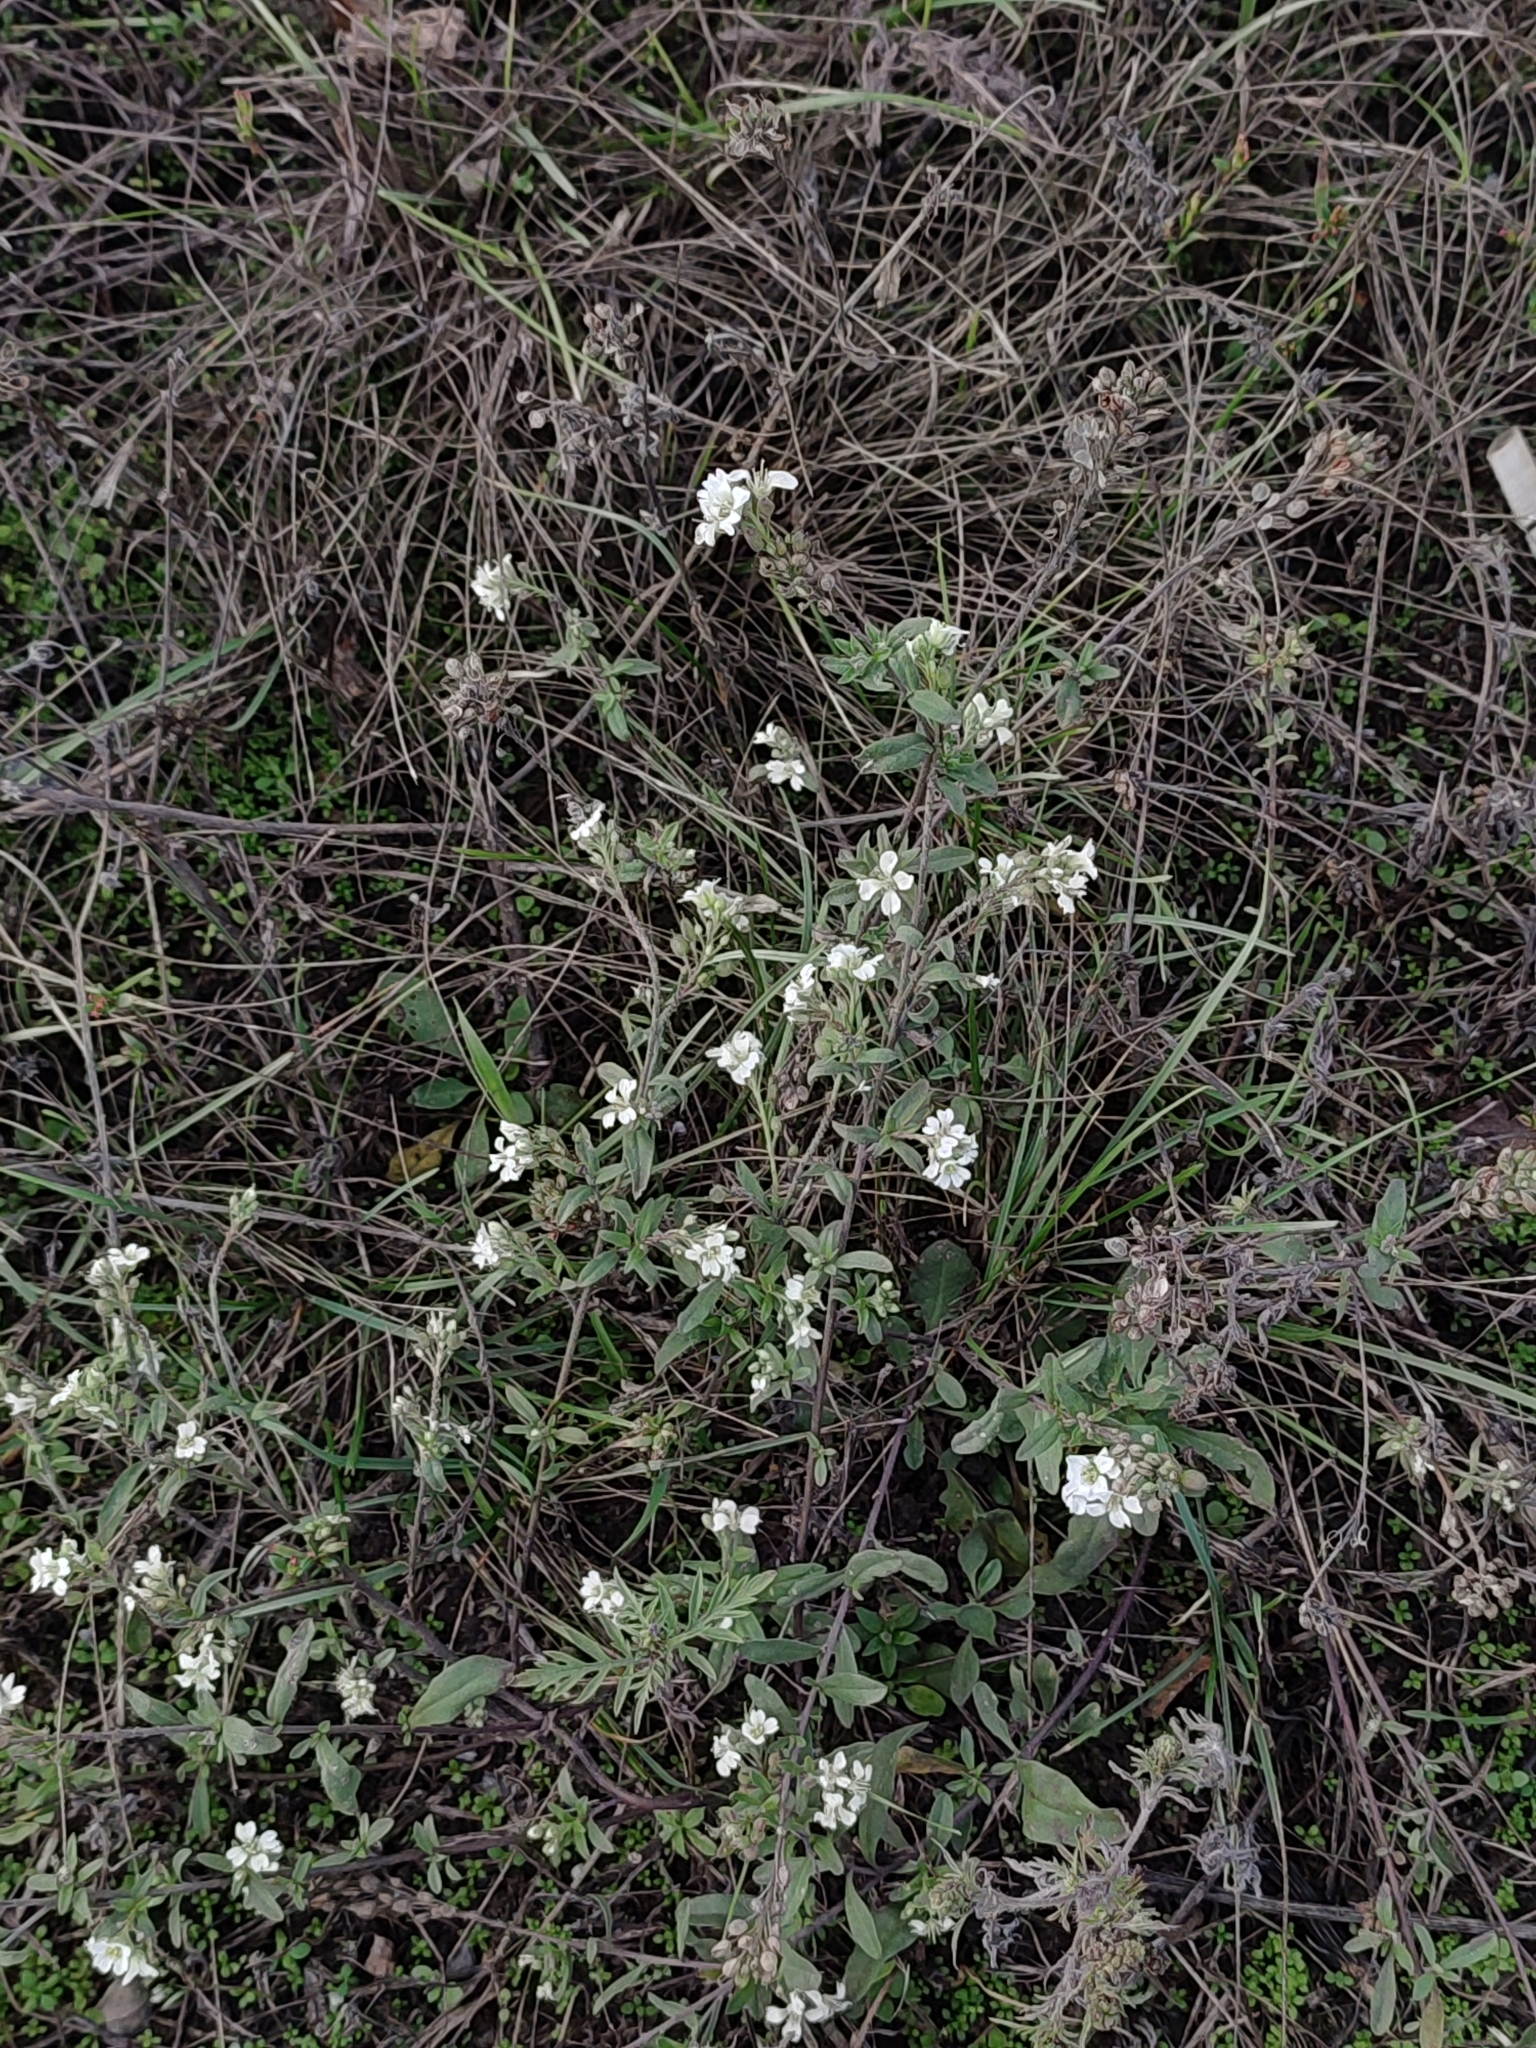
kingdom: Plantae
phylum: Tracheophyta
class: Magnoliopsida
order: Brassicales
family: Brassicaceae
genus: Berteroa
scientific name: Berteroa incana
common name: Hoary alison
